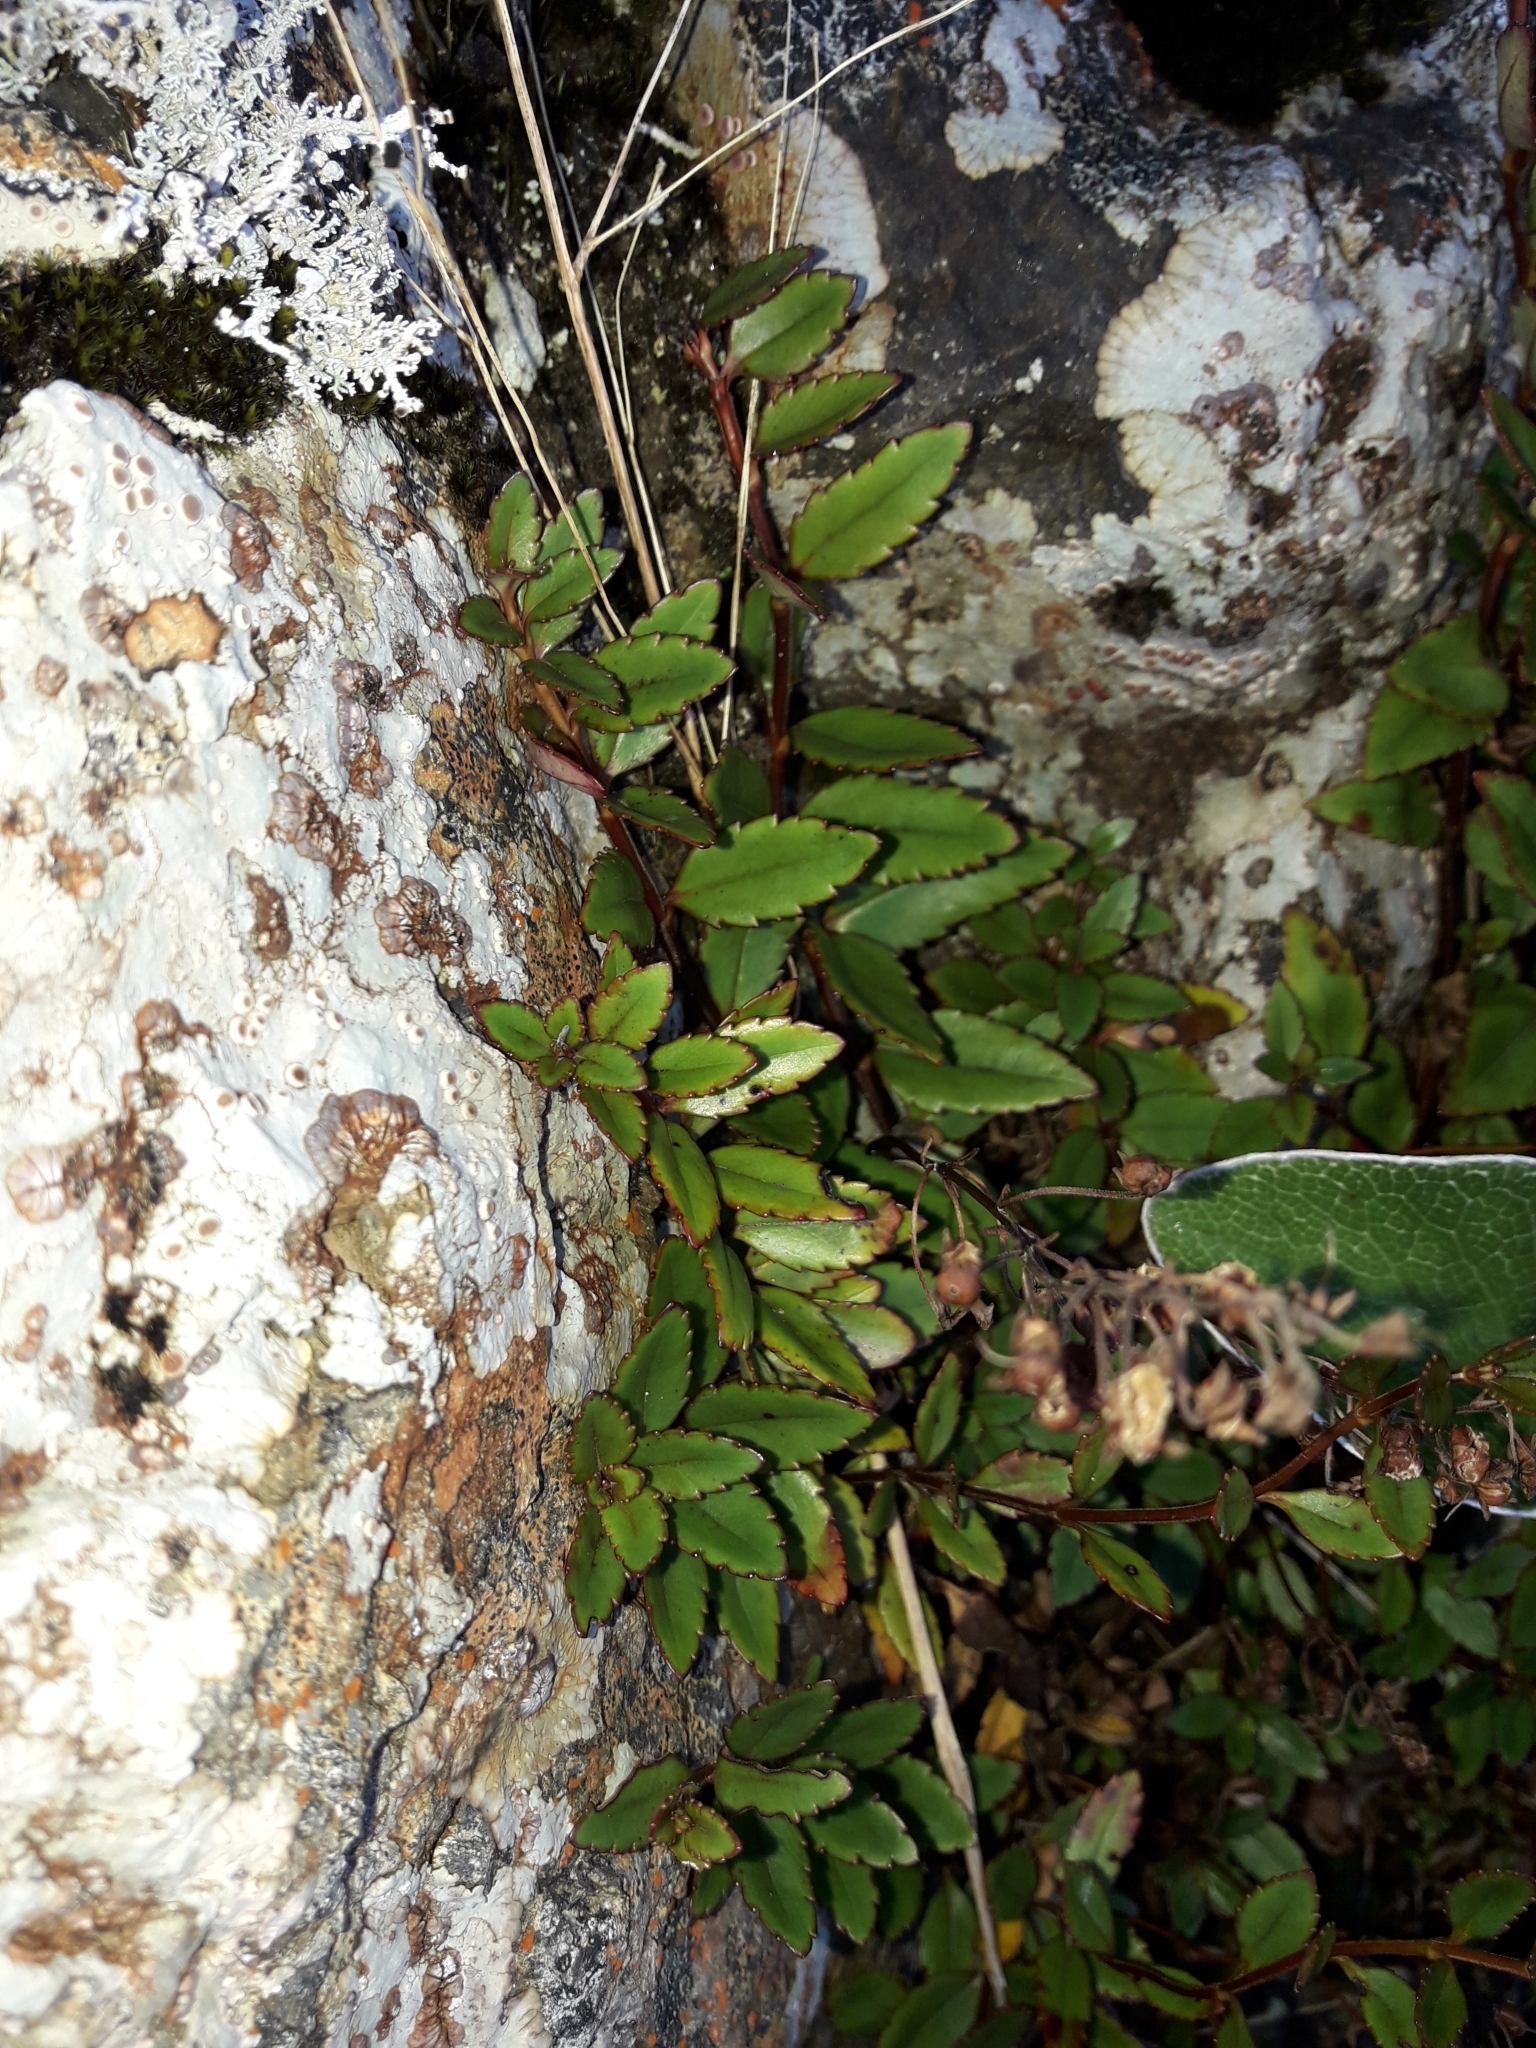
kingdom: Plantae
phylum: Tracheophyta
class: Magnoliopsida
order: Lamiales
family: Plantaginaceae
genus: Veronica
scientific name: Veronica lanceolata
